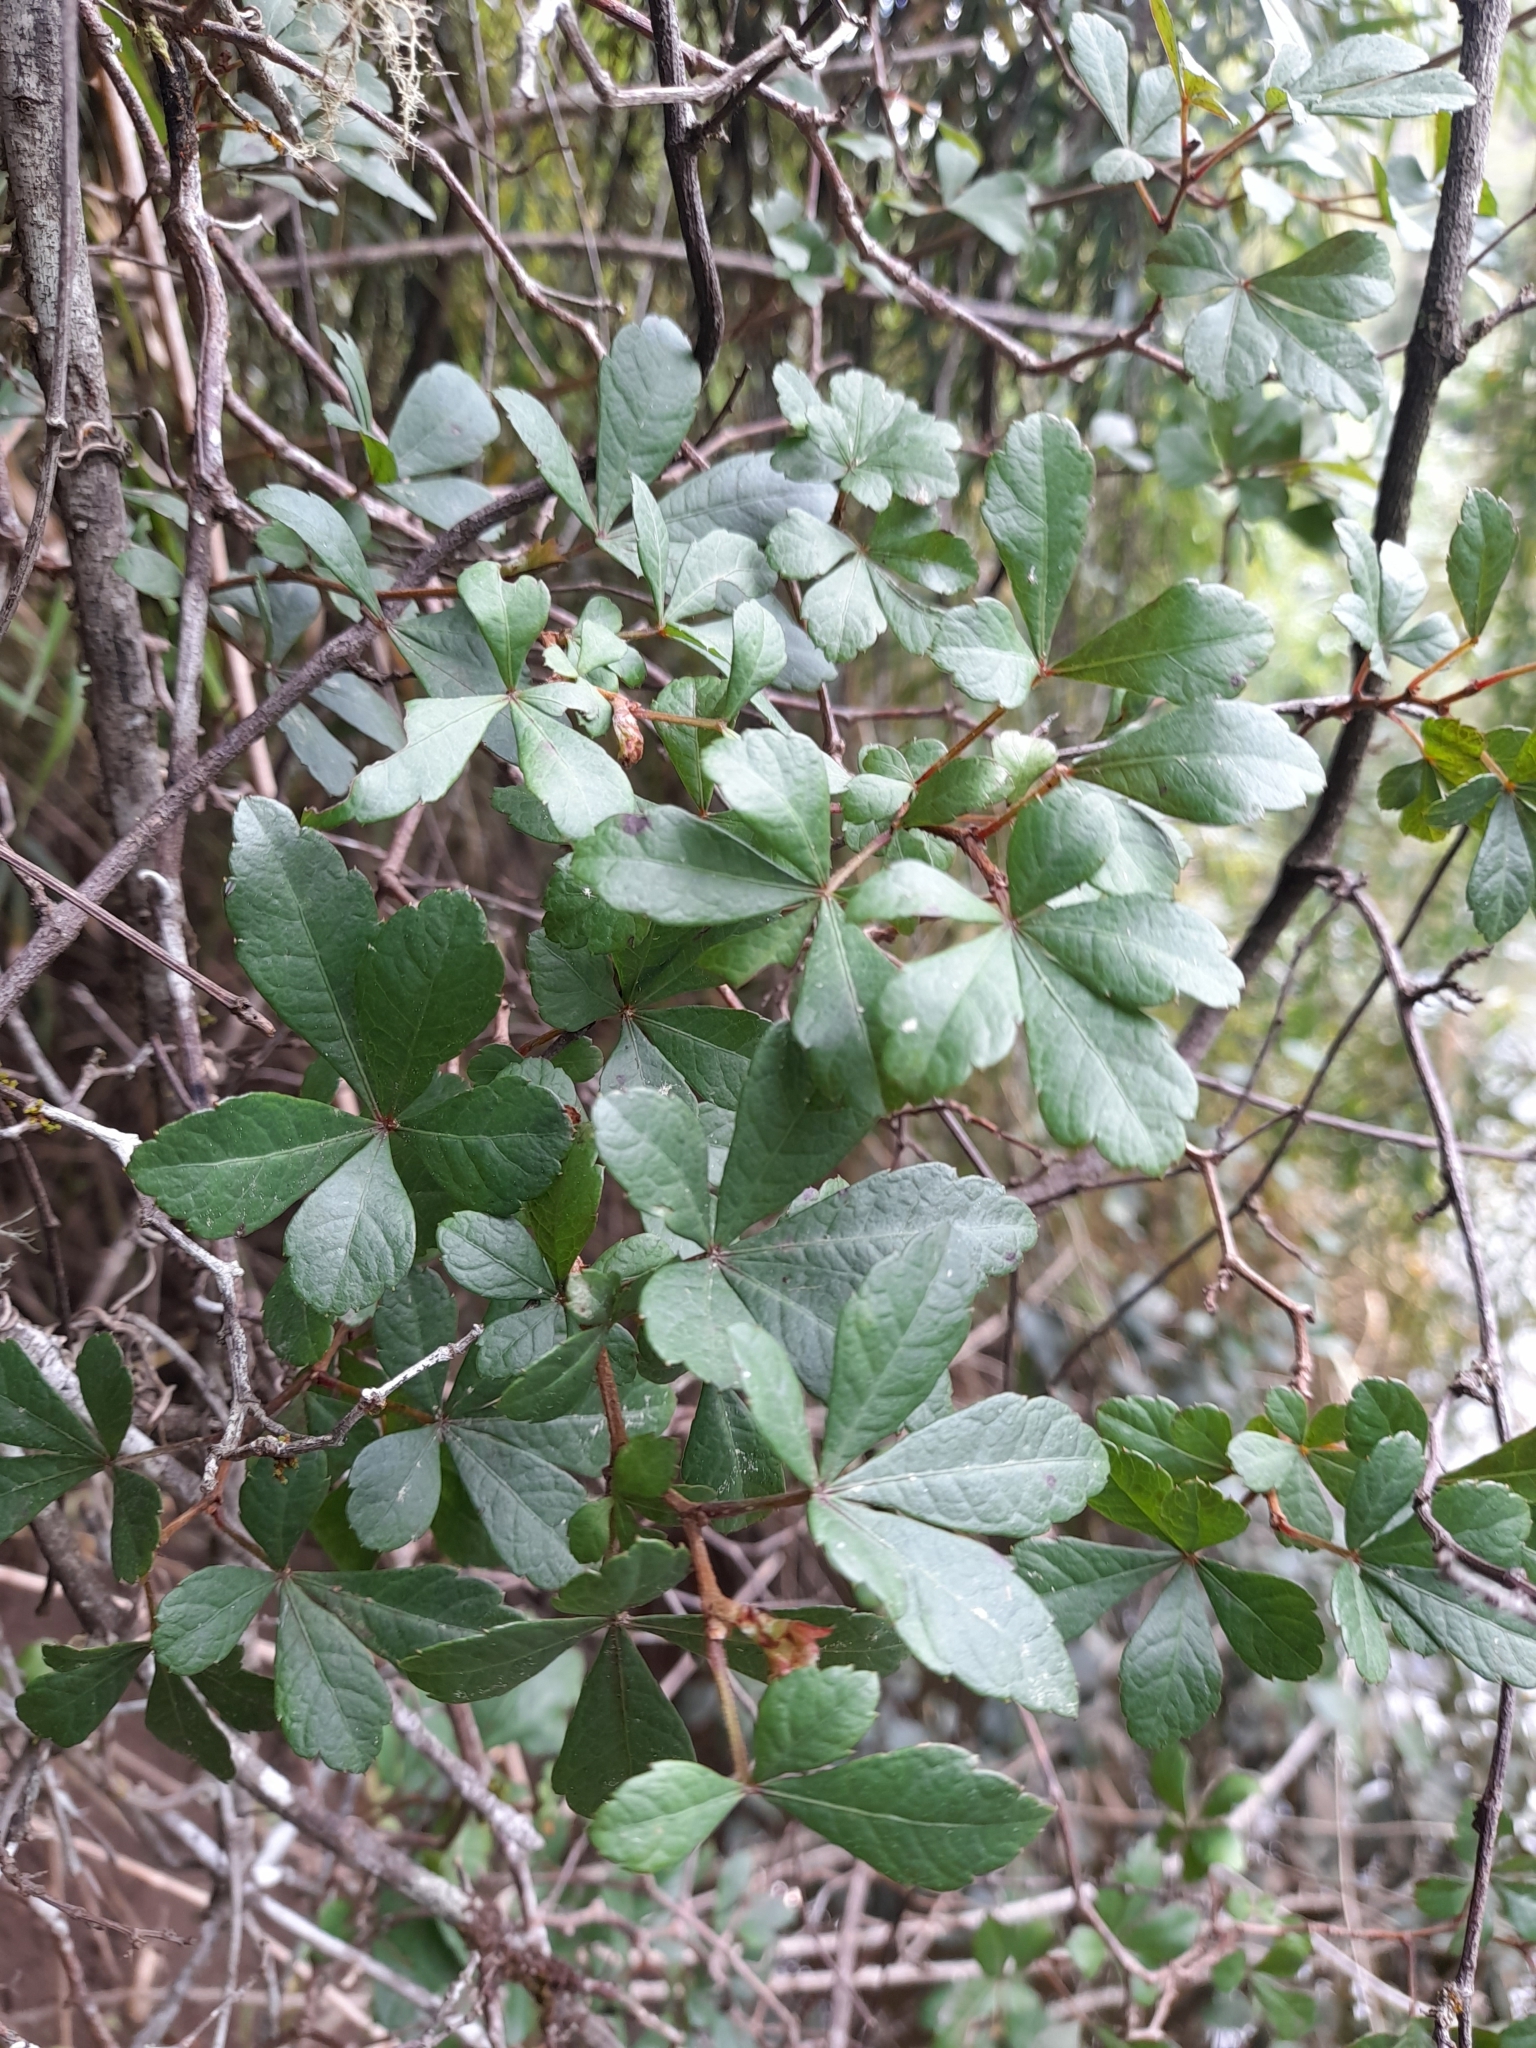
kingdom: Plantae
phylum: Tracheophyta
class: Magnoliopsida
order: Vitales
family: Vitaceae
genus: Clematicissus
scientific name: Clematicissus striata
